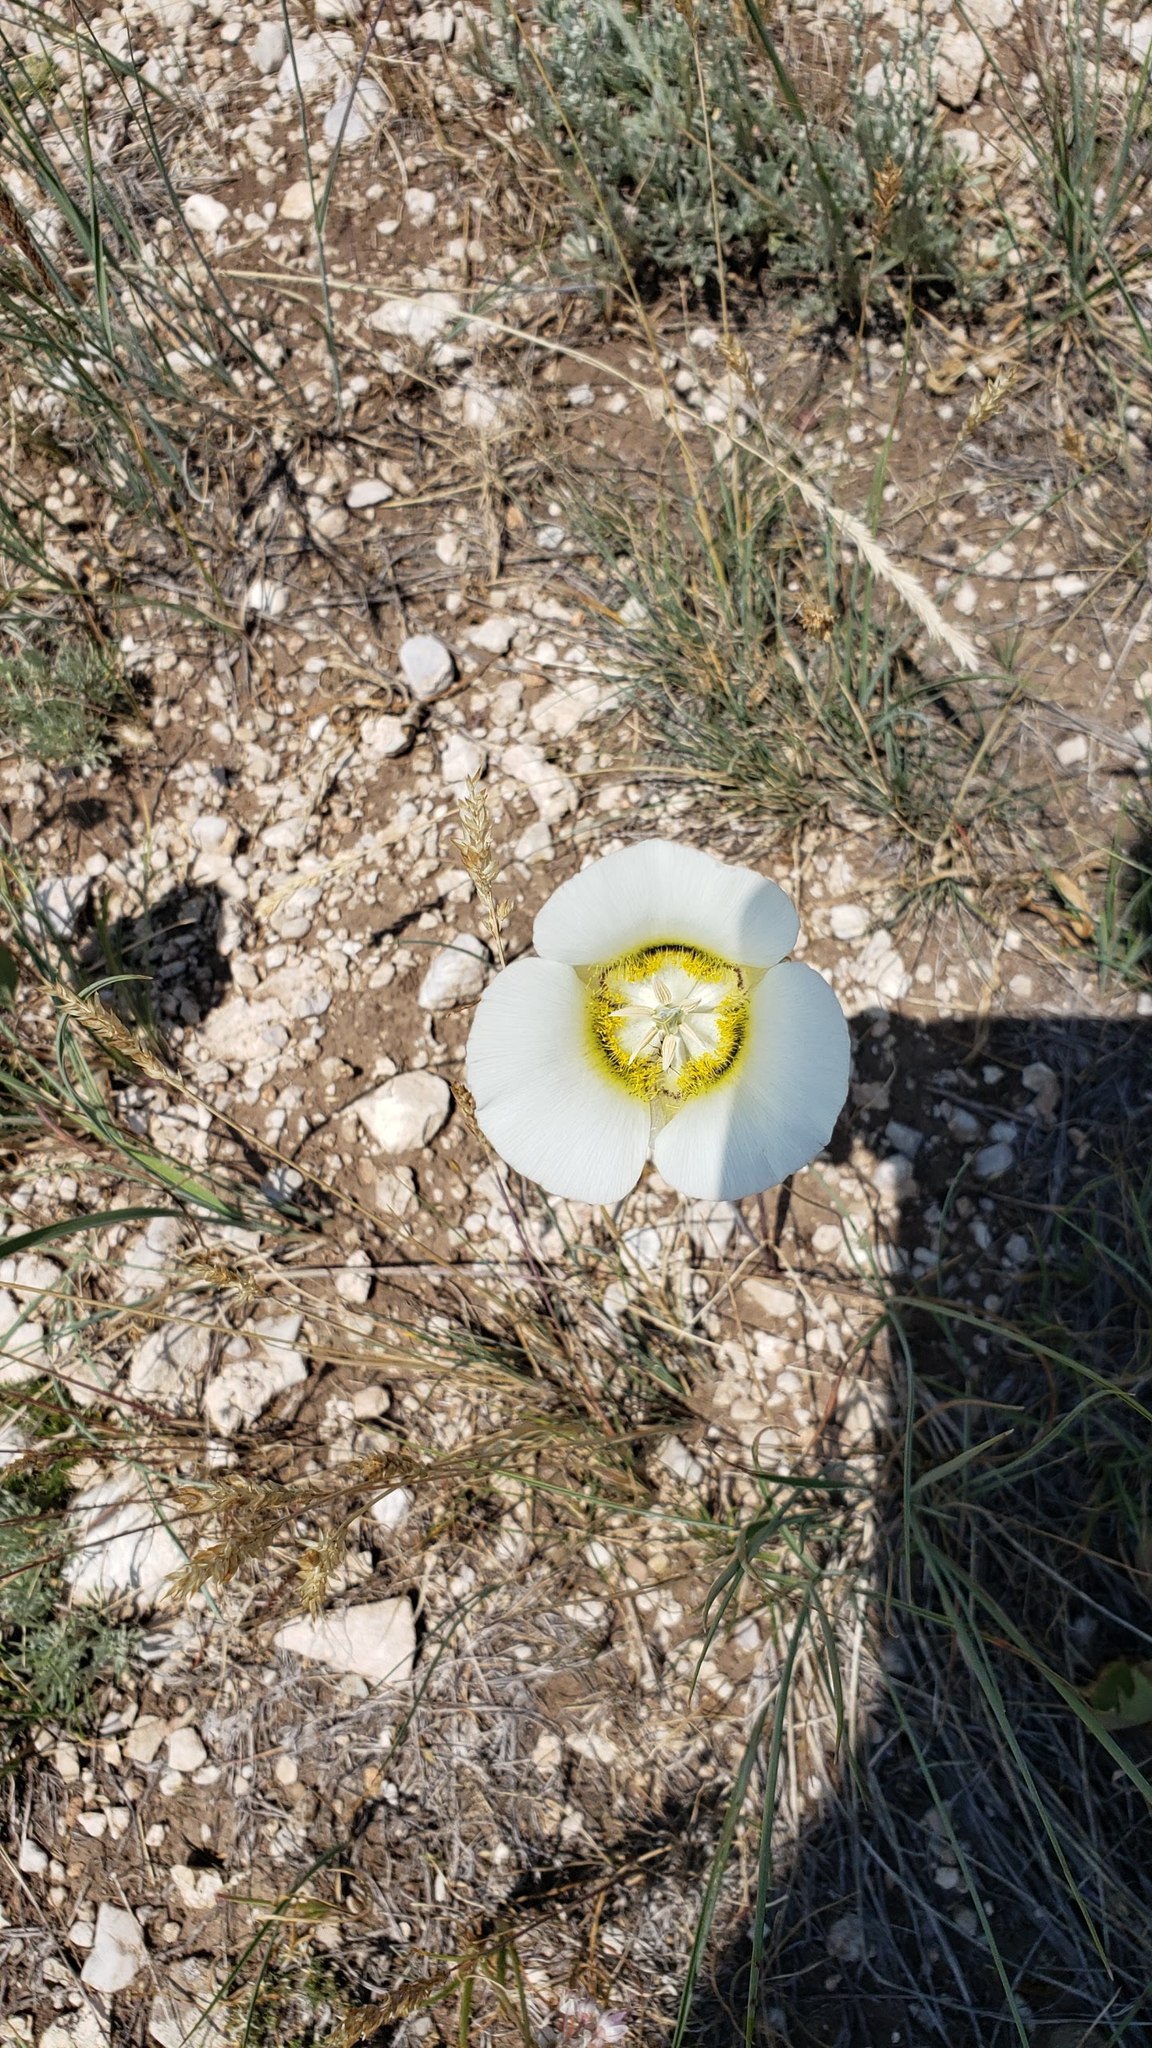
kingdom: Plantae
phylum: Tracheophyta
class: Liliopsida
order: Liliales
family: Liliaceae
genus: Calochortus
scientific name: Calochortus gunnisonii
